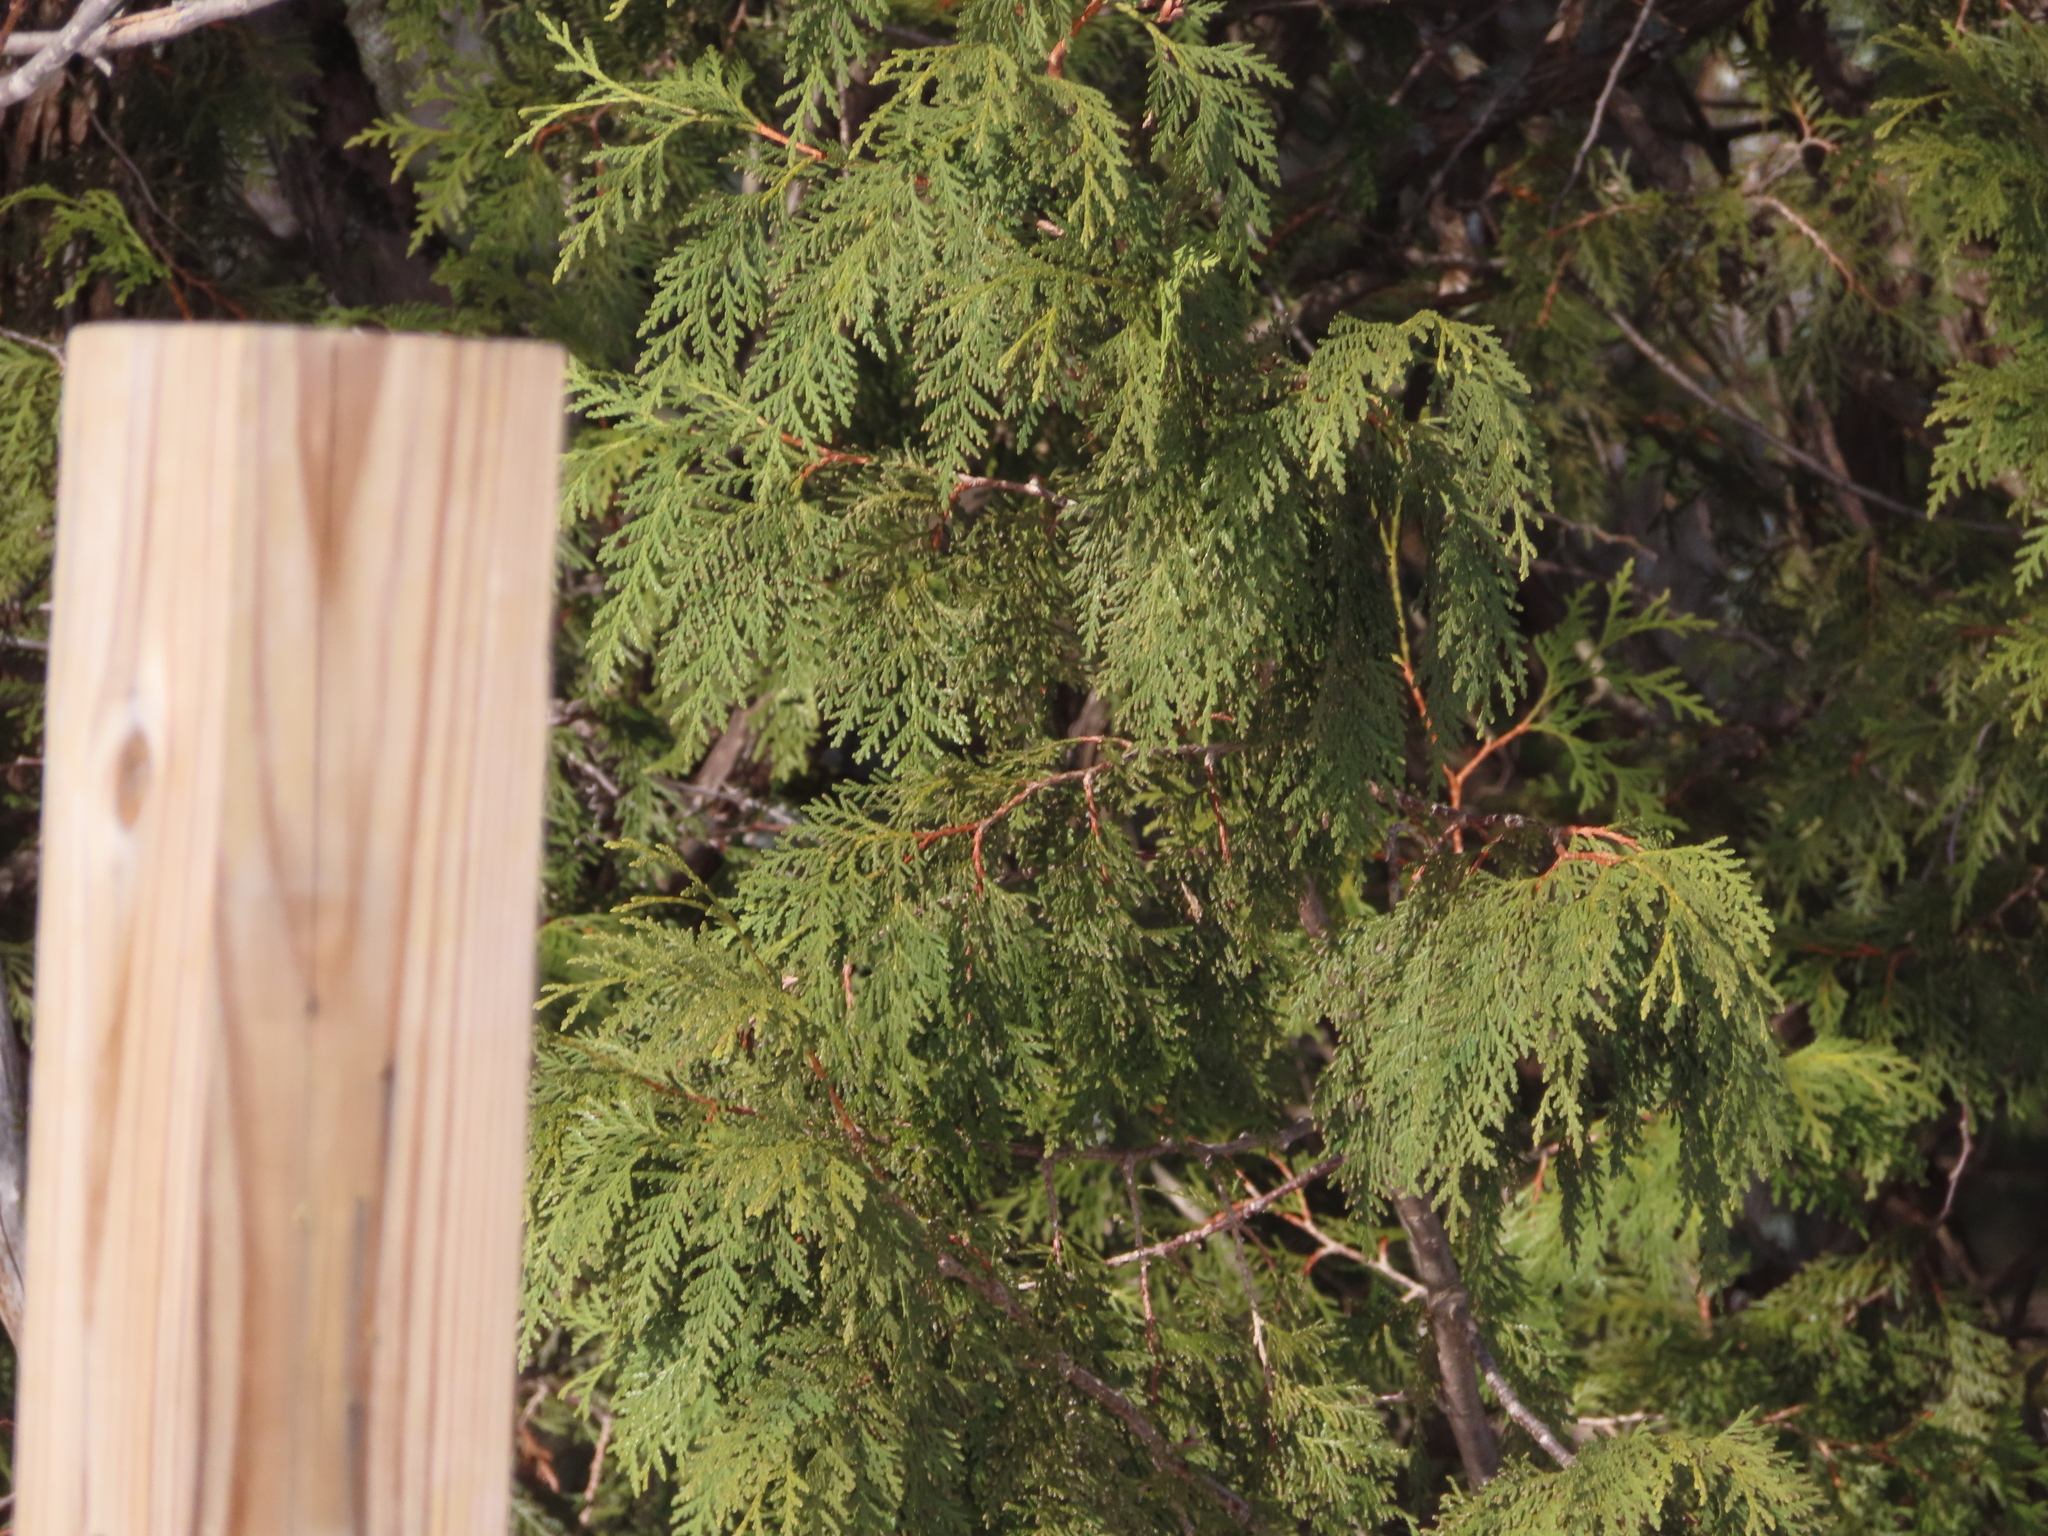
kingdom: Plantae
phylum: Tracheophyta
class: Pinopsida
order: Pinales
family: Cupressaceae
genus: Thuja
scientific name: Thuja occidentalis
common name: Northern white-cedar
